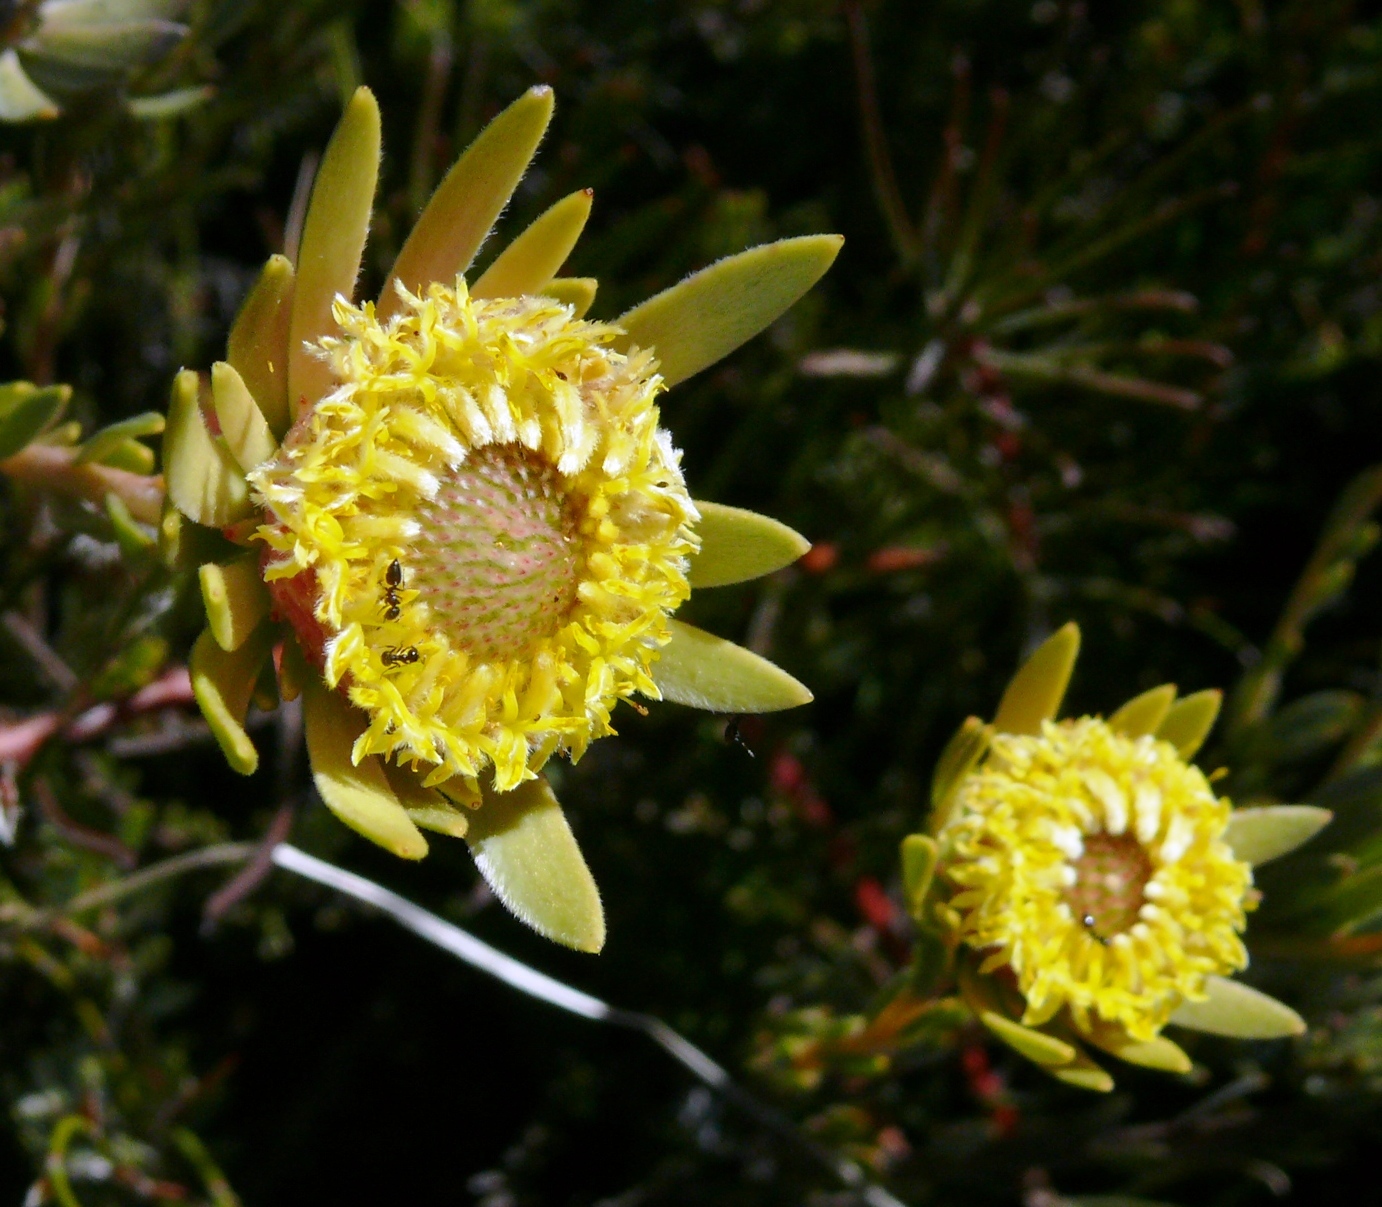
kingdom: Plantae
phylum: Tracheophyta
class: Magnoliopsida
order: Proteales
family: Proteaceae
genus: Leucadendron
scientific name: Leucadendron nitidum
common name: Bokkeveld conebush
